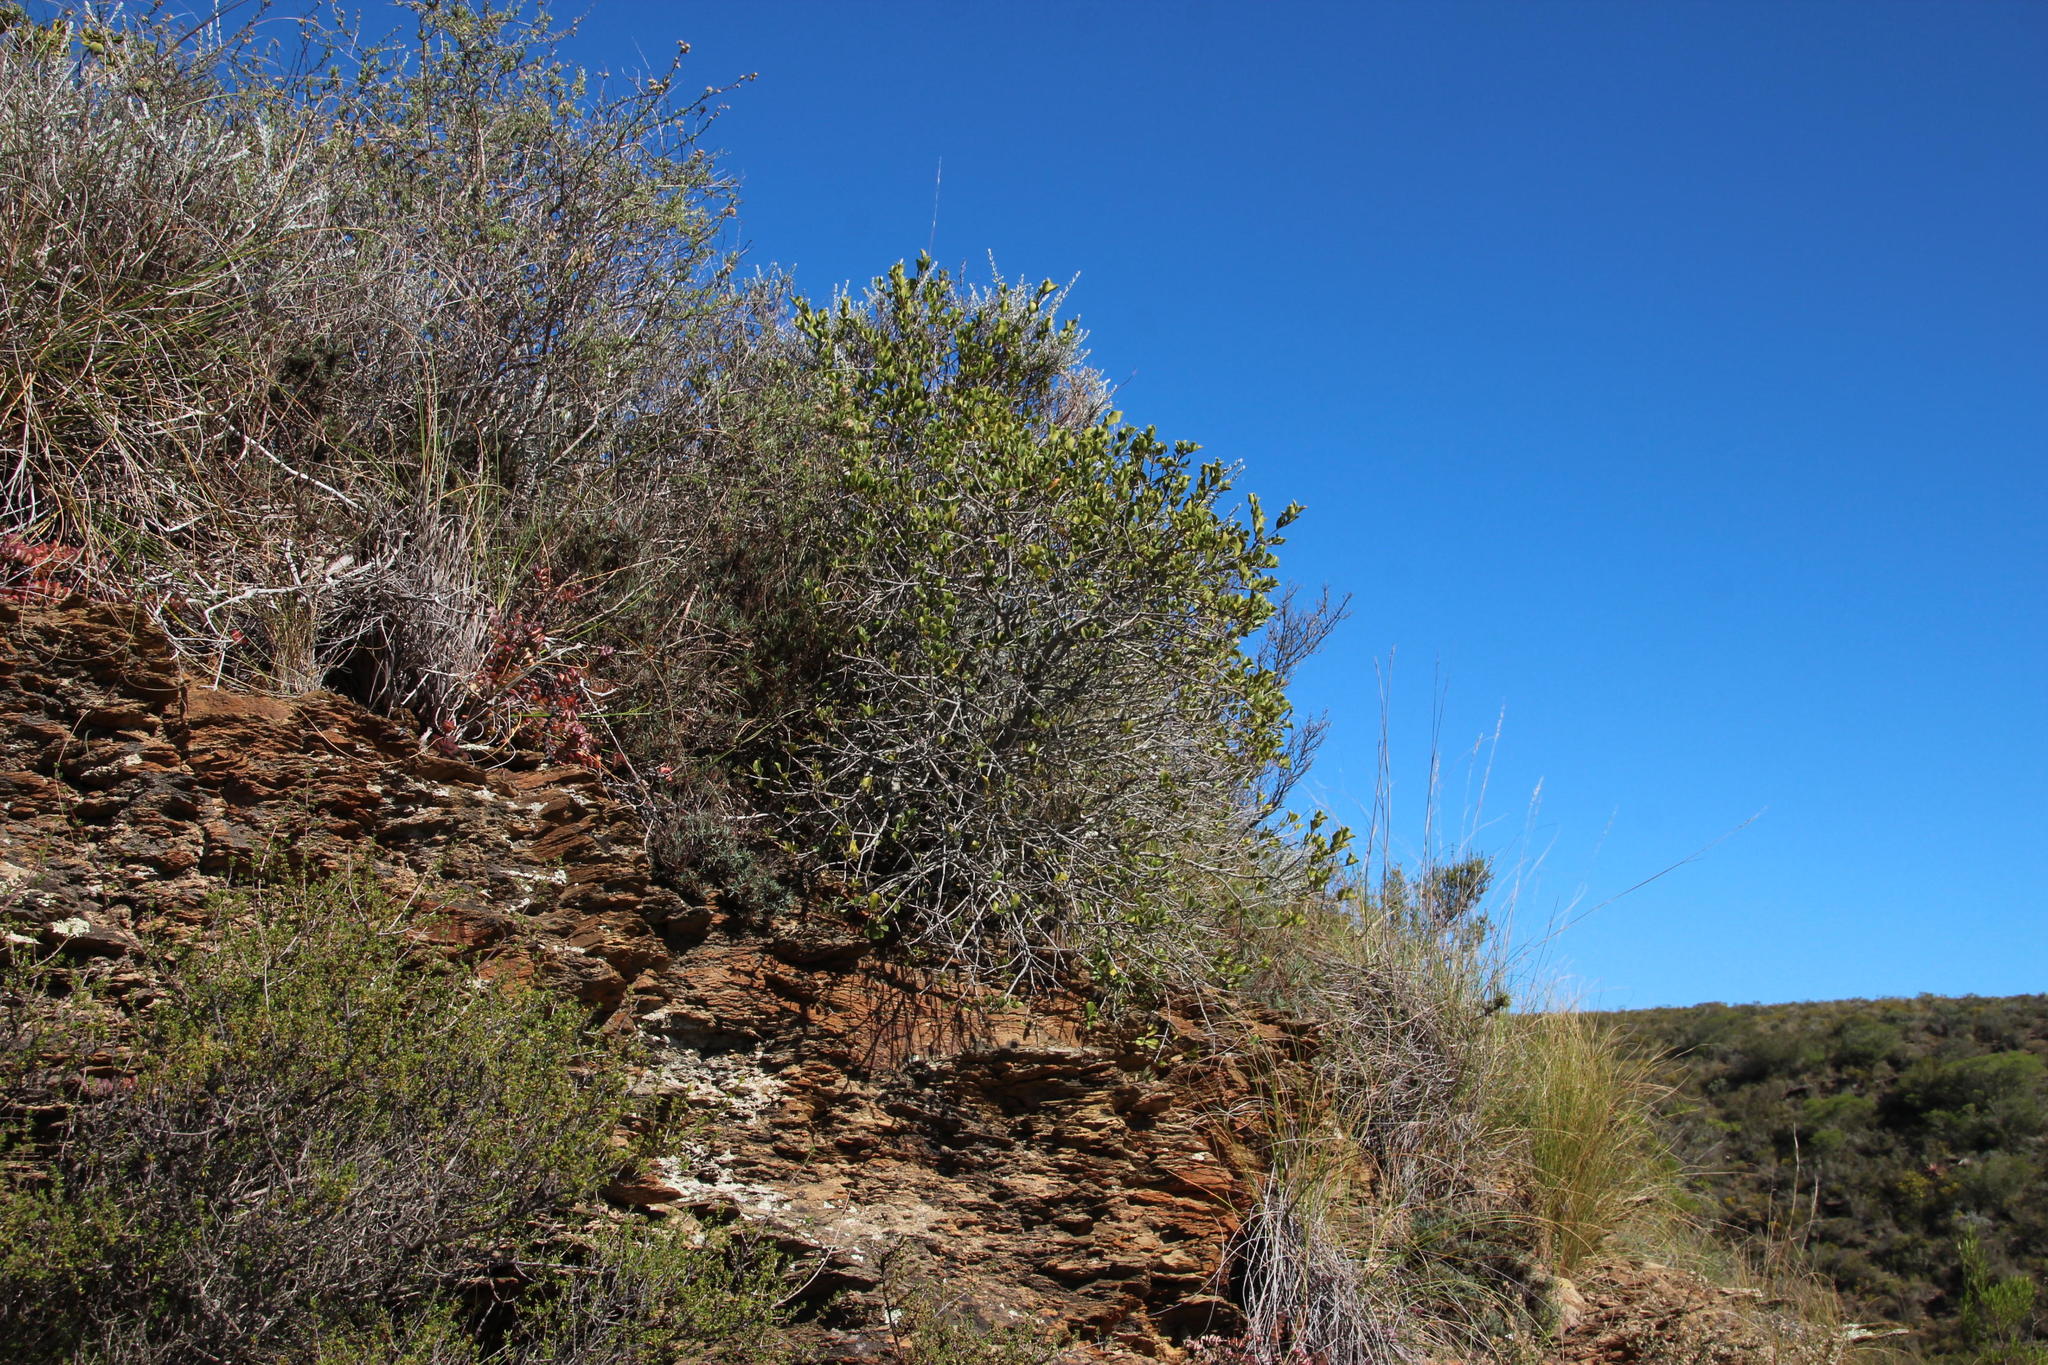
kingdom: Plantae
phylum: Tracheophyta
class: Magnoliopsida
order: Saxifragales
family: Crassulaceae
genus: Adromischus
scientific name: Adromischus filicaulis
